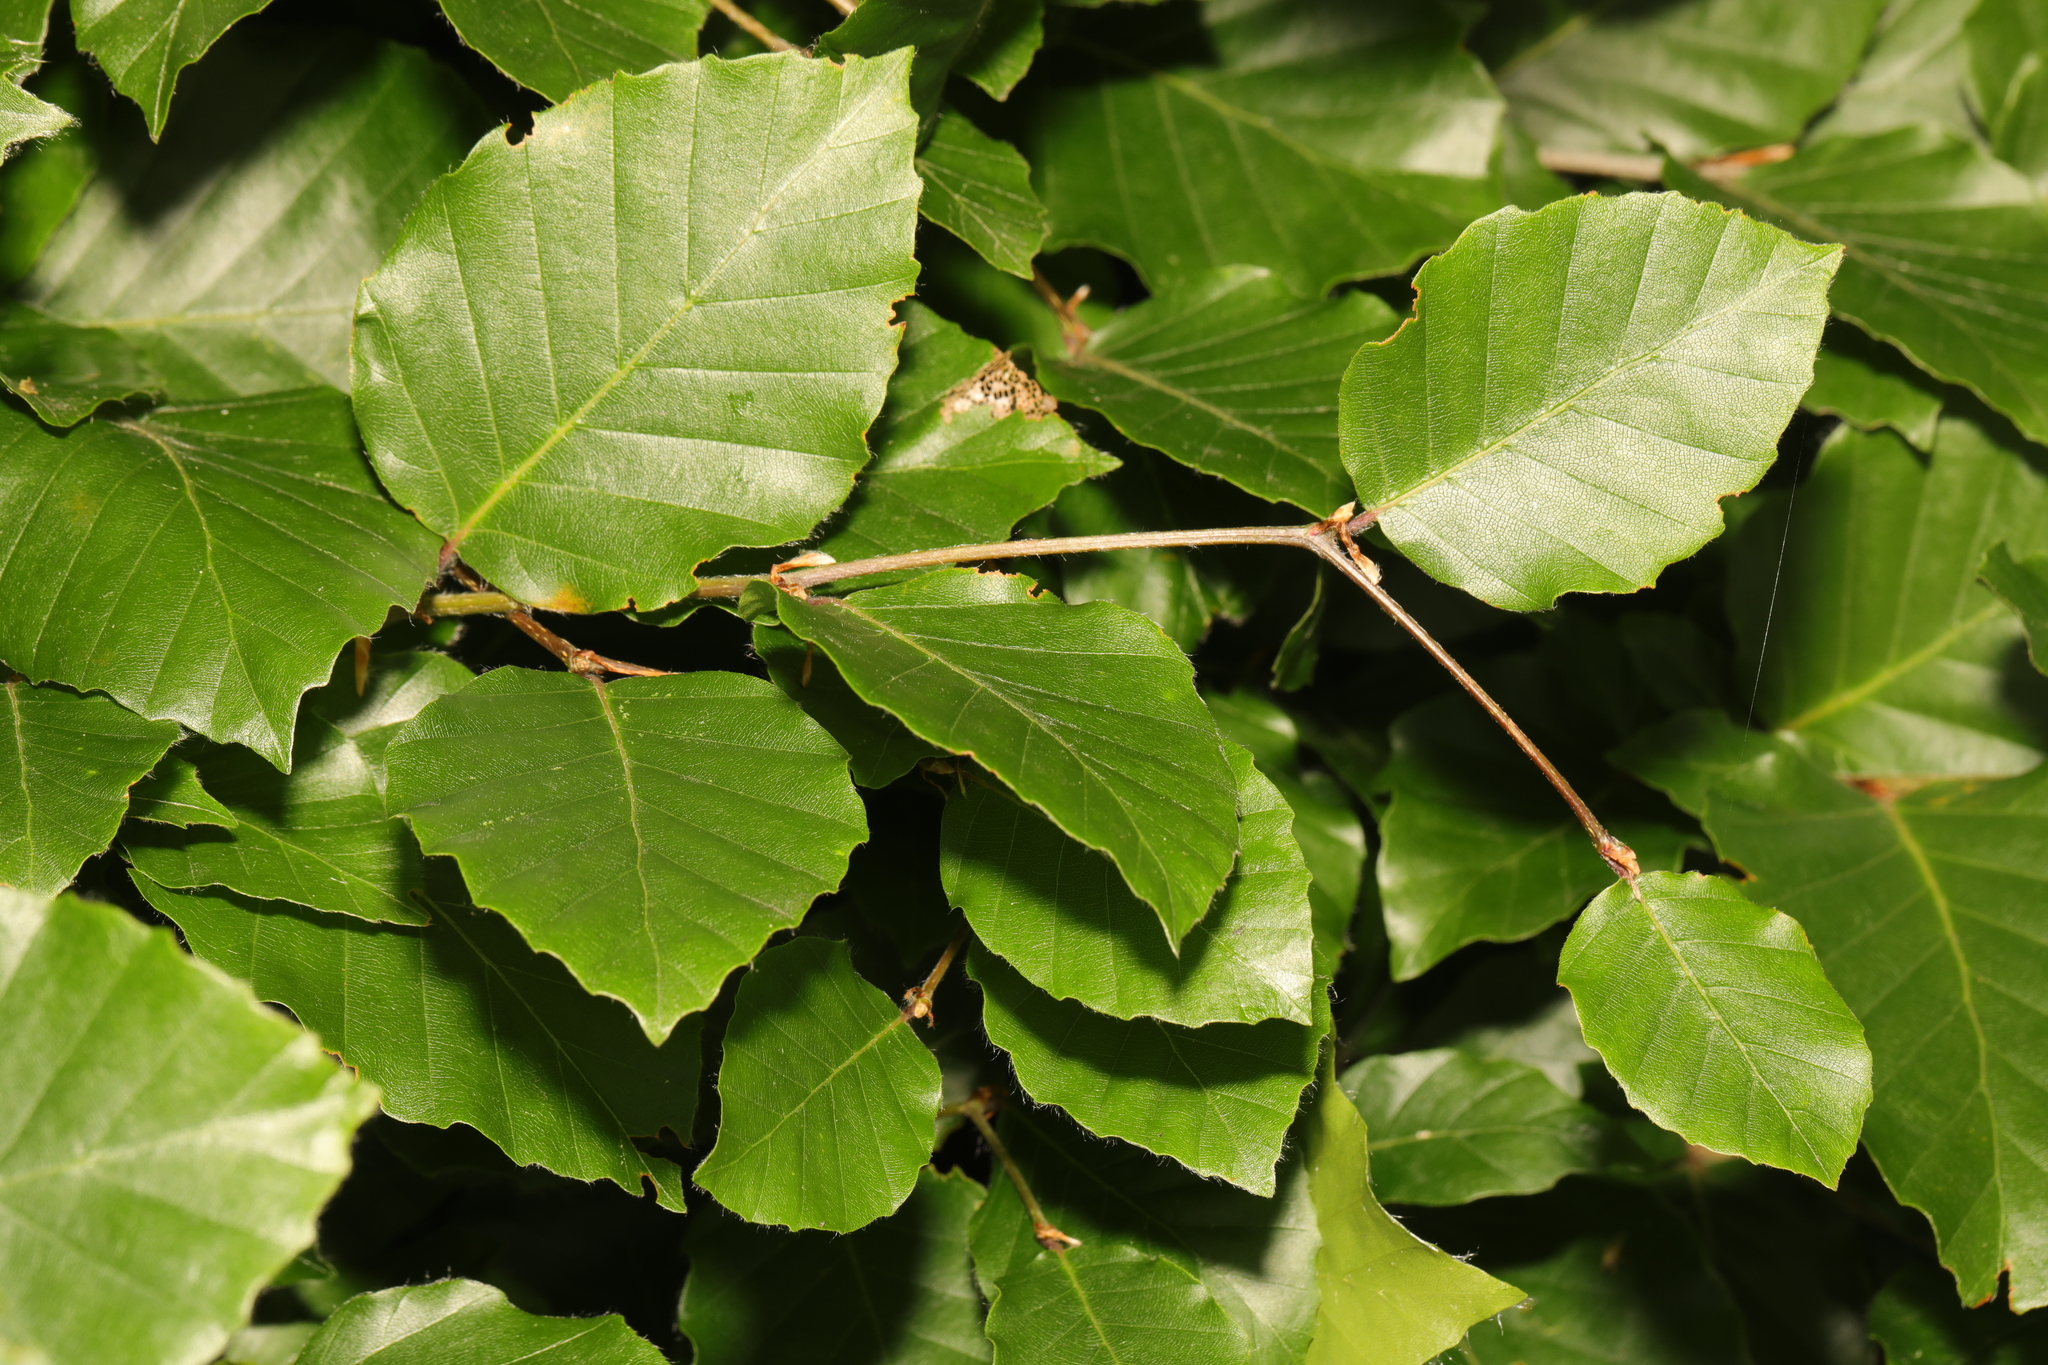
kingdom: Plantae
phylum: Tracheophyta
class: Magnoliopsida
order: Fagales
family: Fagaceae
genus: Fagus
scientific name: Fagus sylvatica
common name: Beech
